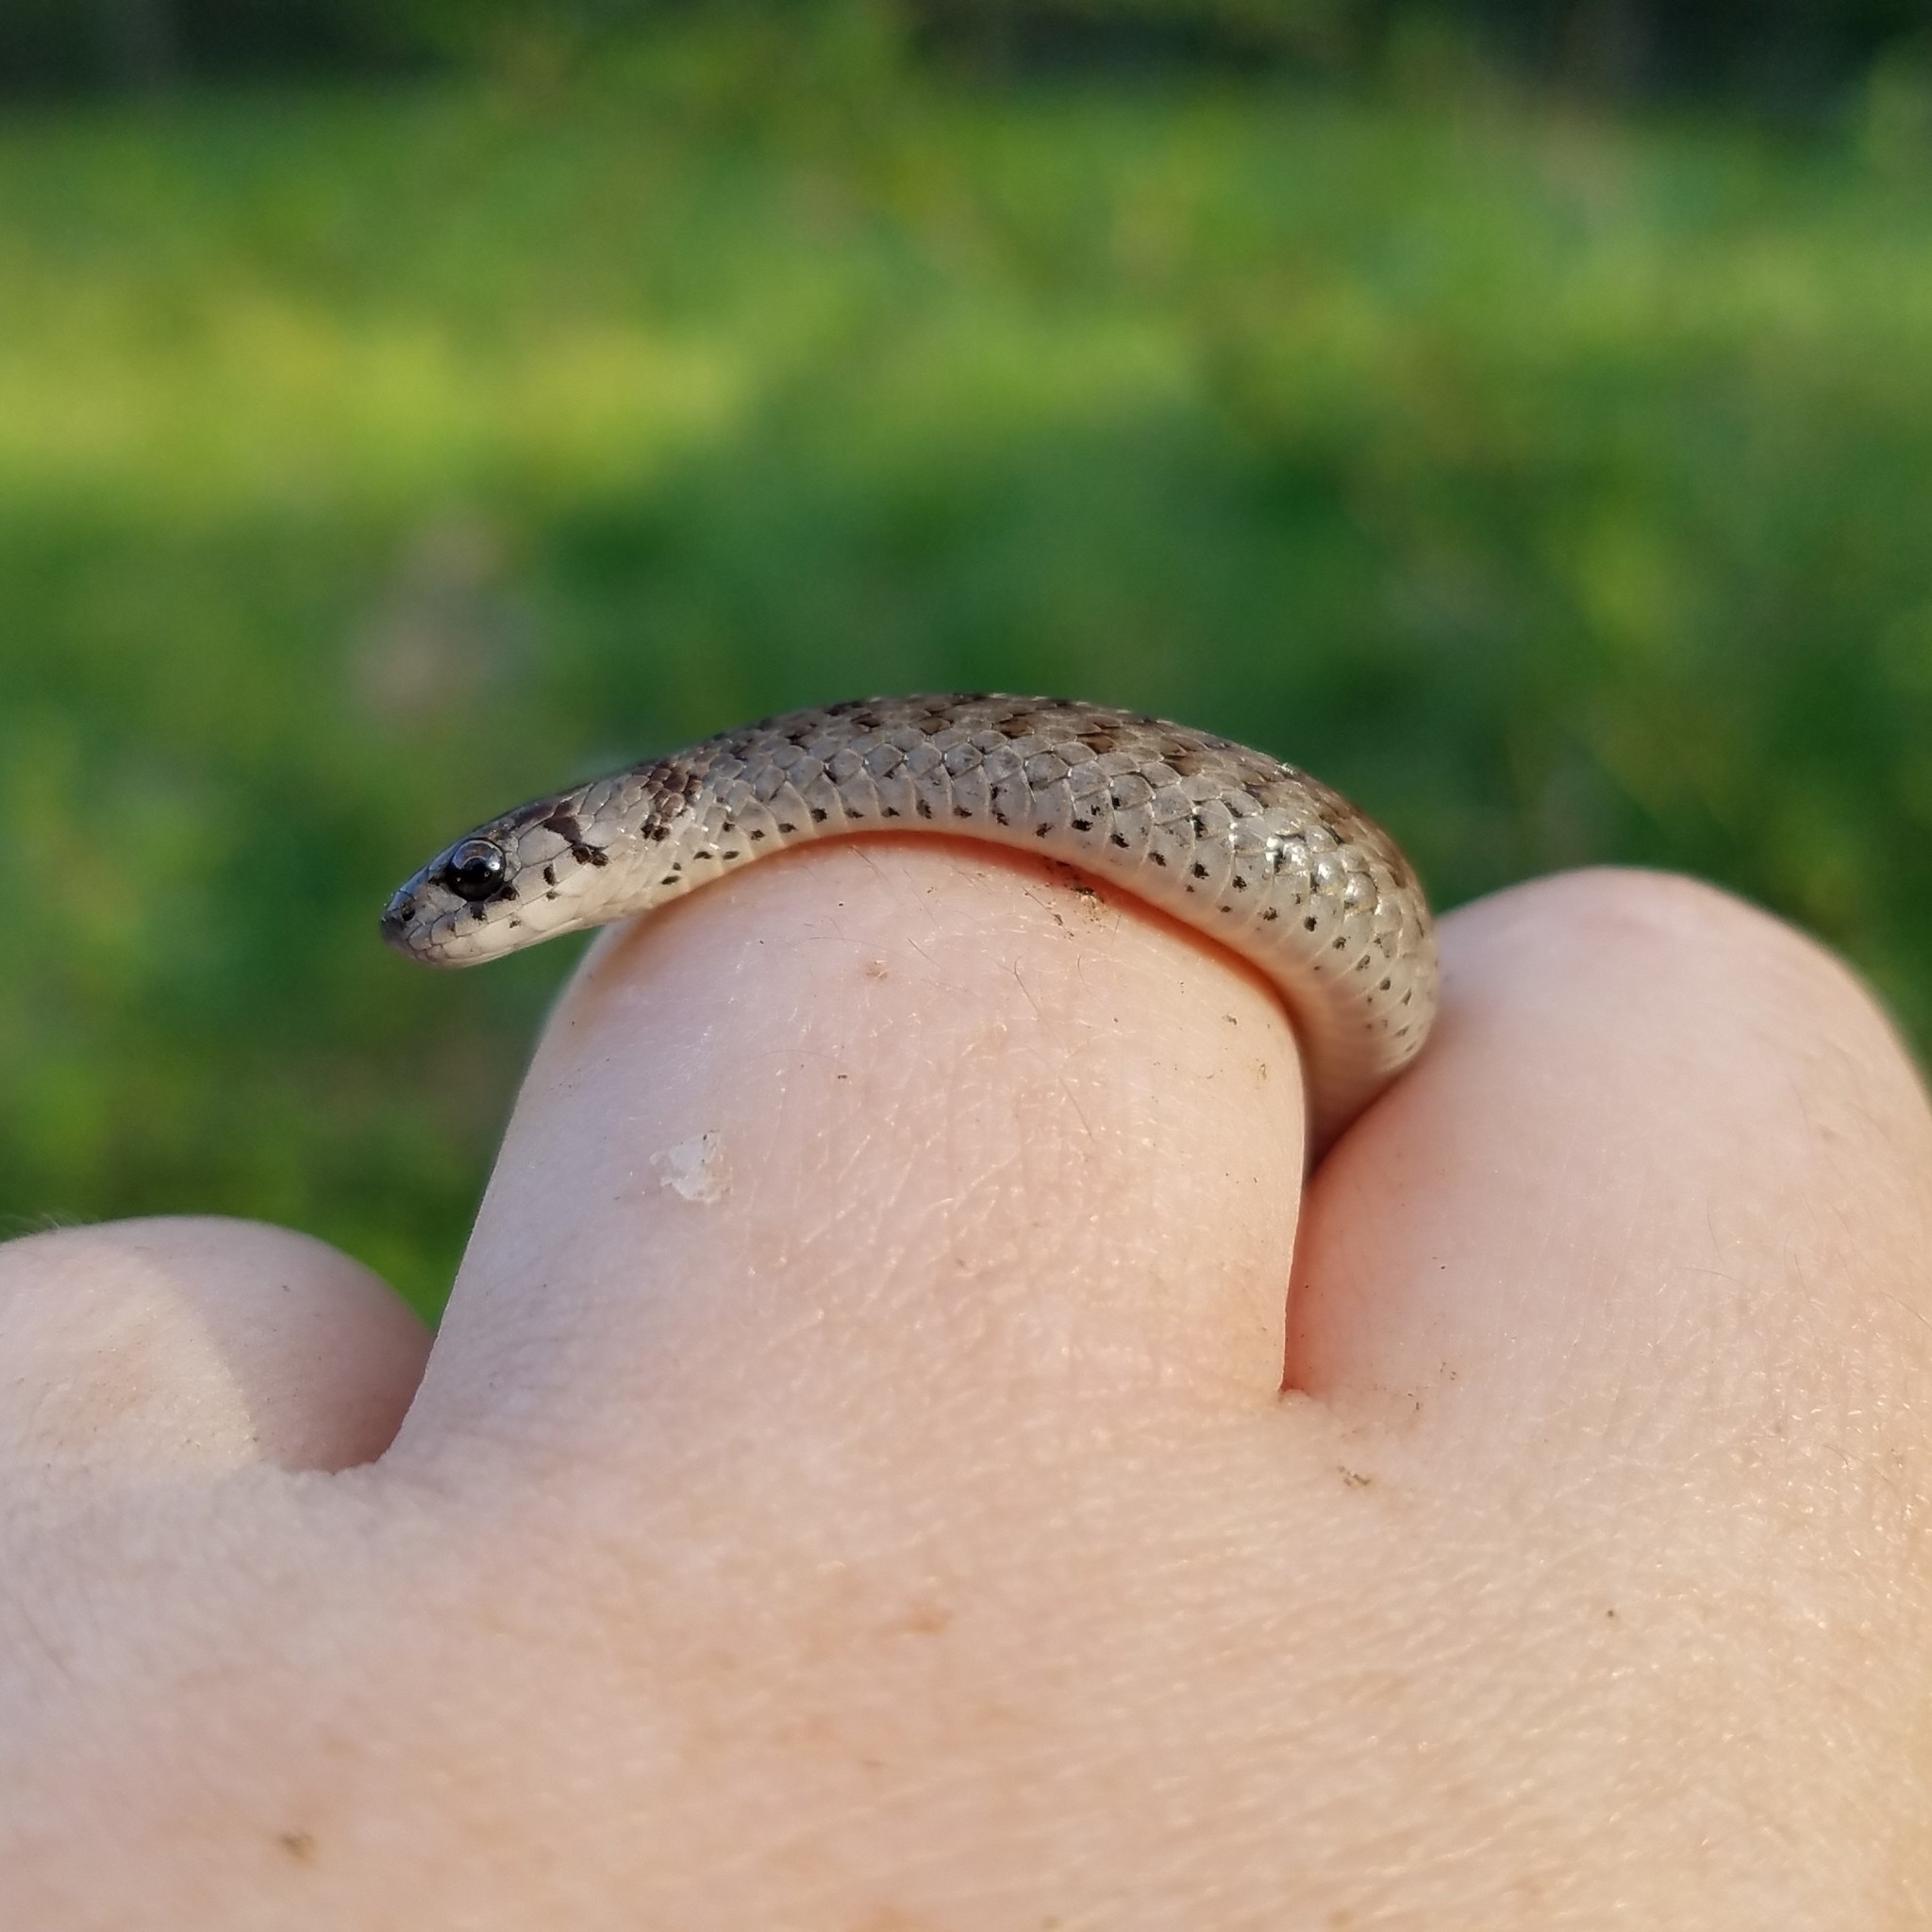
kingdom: Animalia
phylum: Chordata
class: Squamata
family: Colubridae
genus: Storeria
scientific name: Storeria dekayi
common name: (dekay’s) brown snake
